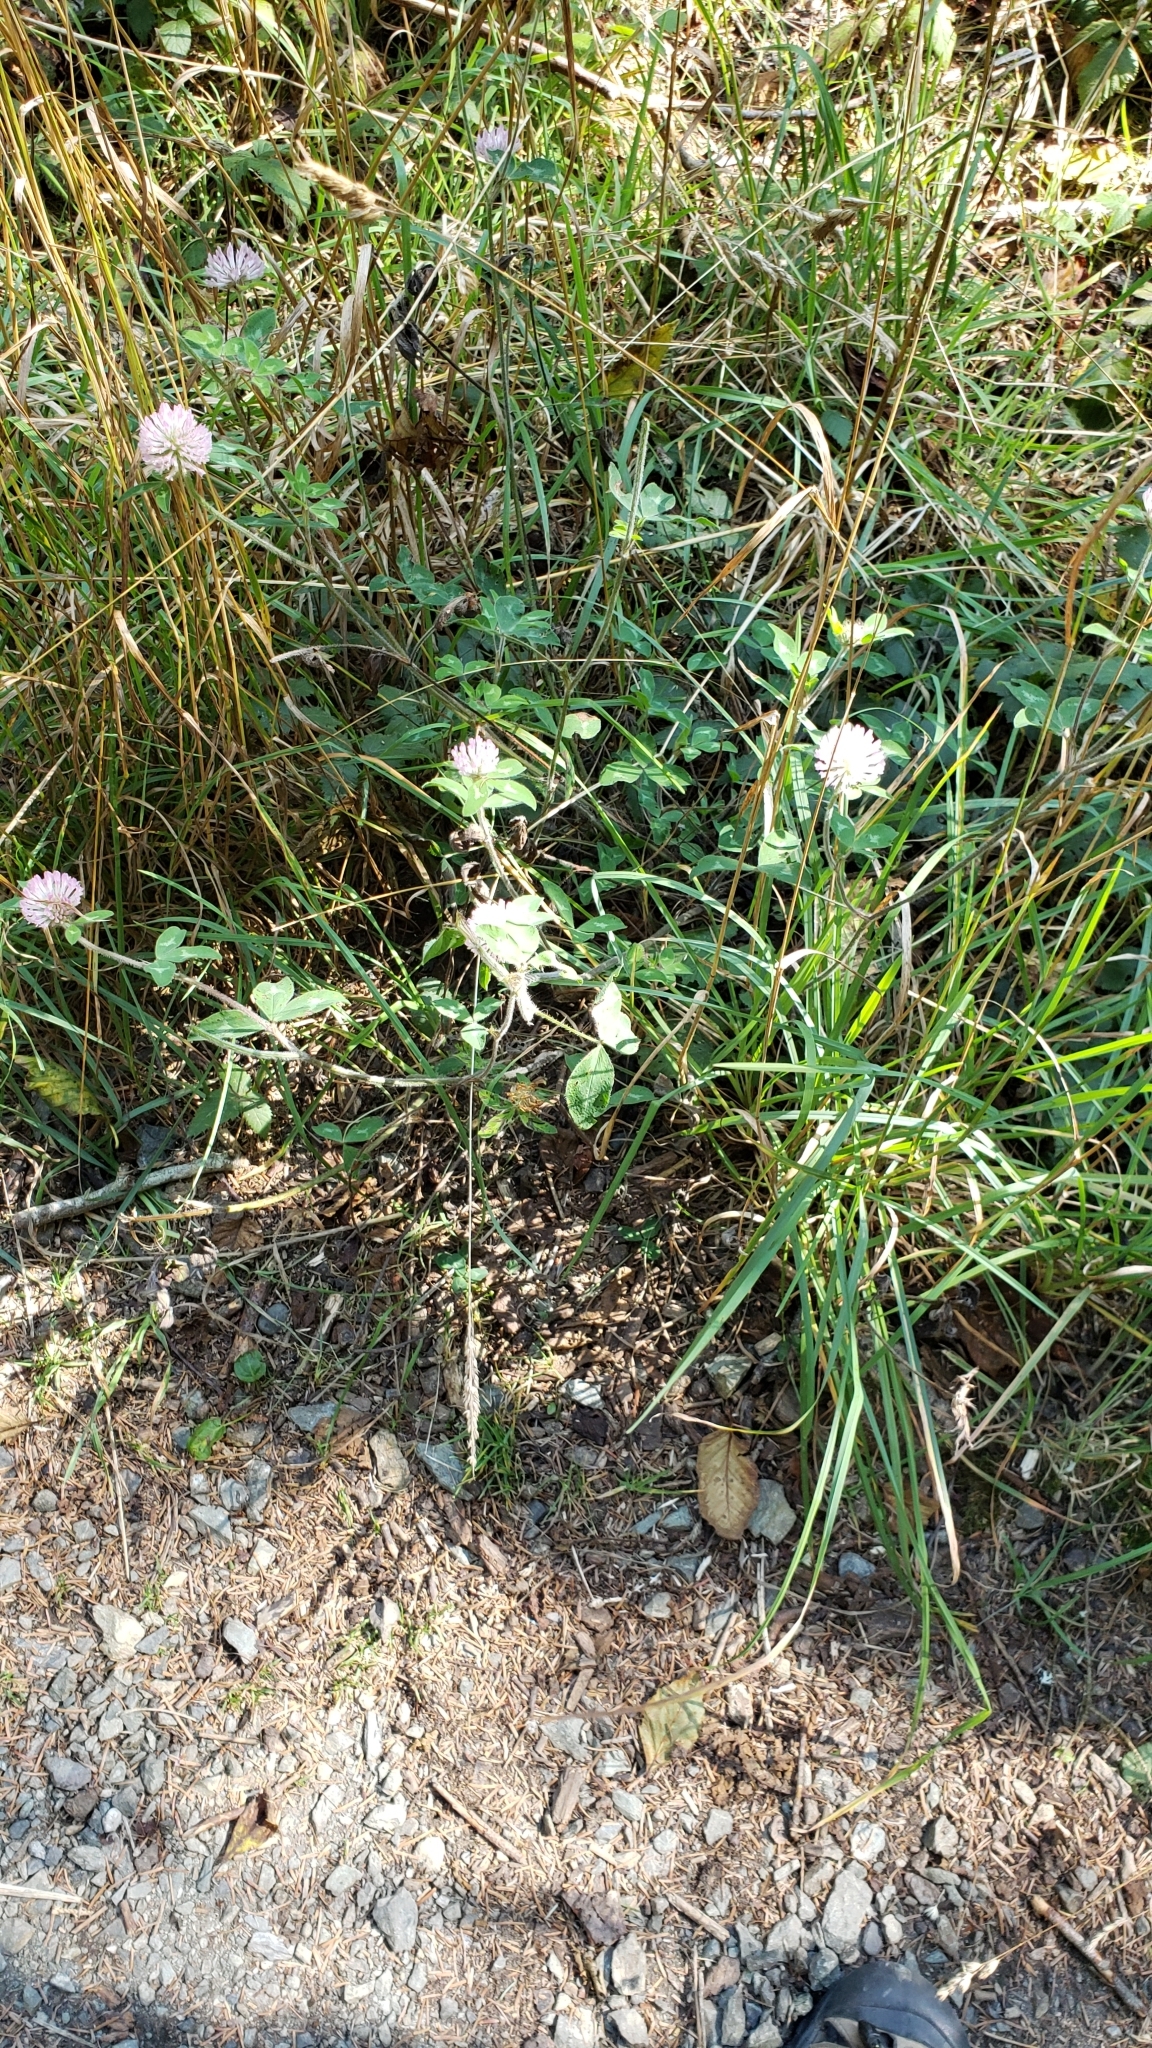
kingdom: Plantae
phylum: Tracheophyta
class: Magnoliopsida
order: Fabales
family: Fabaceae
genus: Trifolium
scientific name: Trifolium pratense
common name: Red clover
